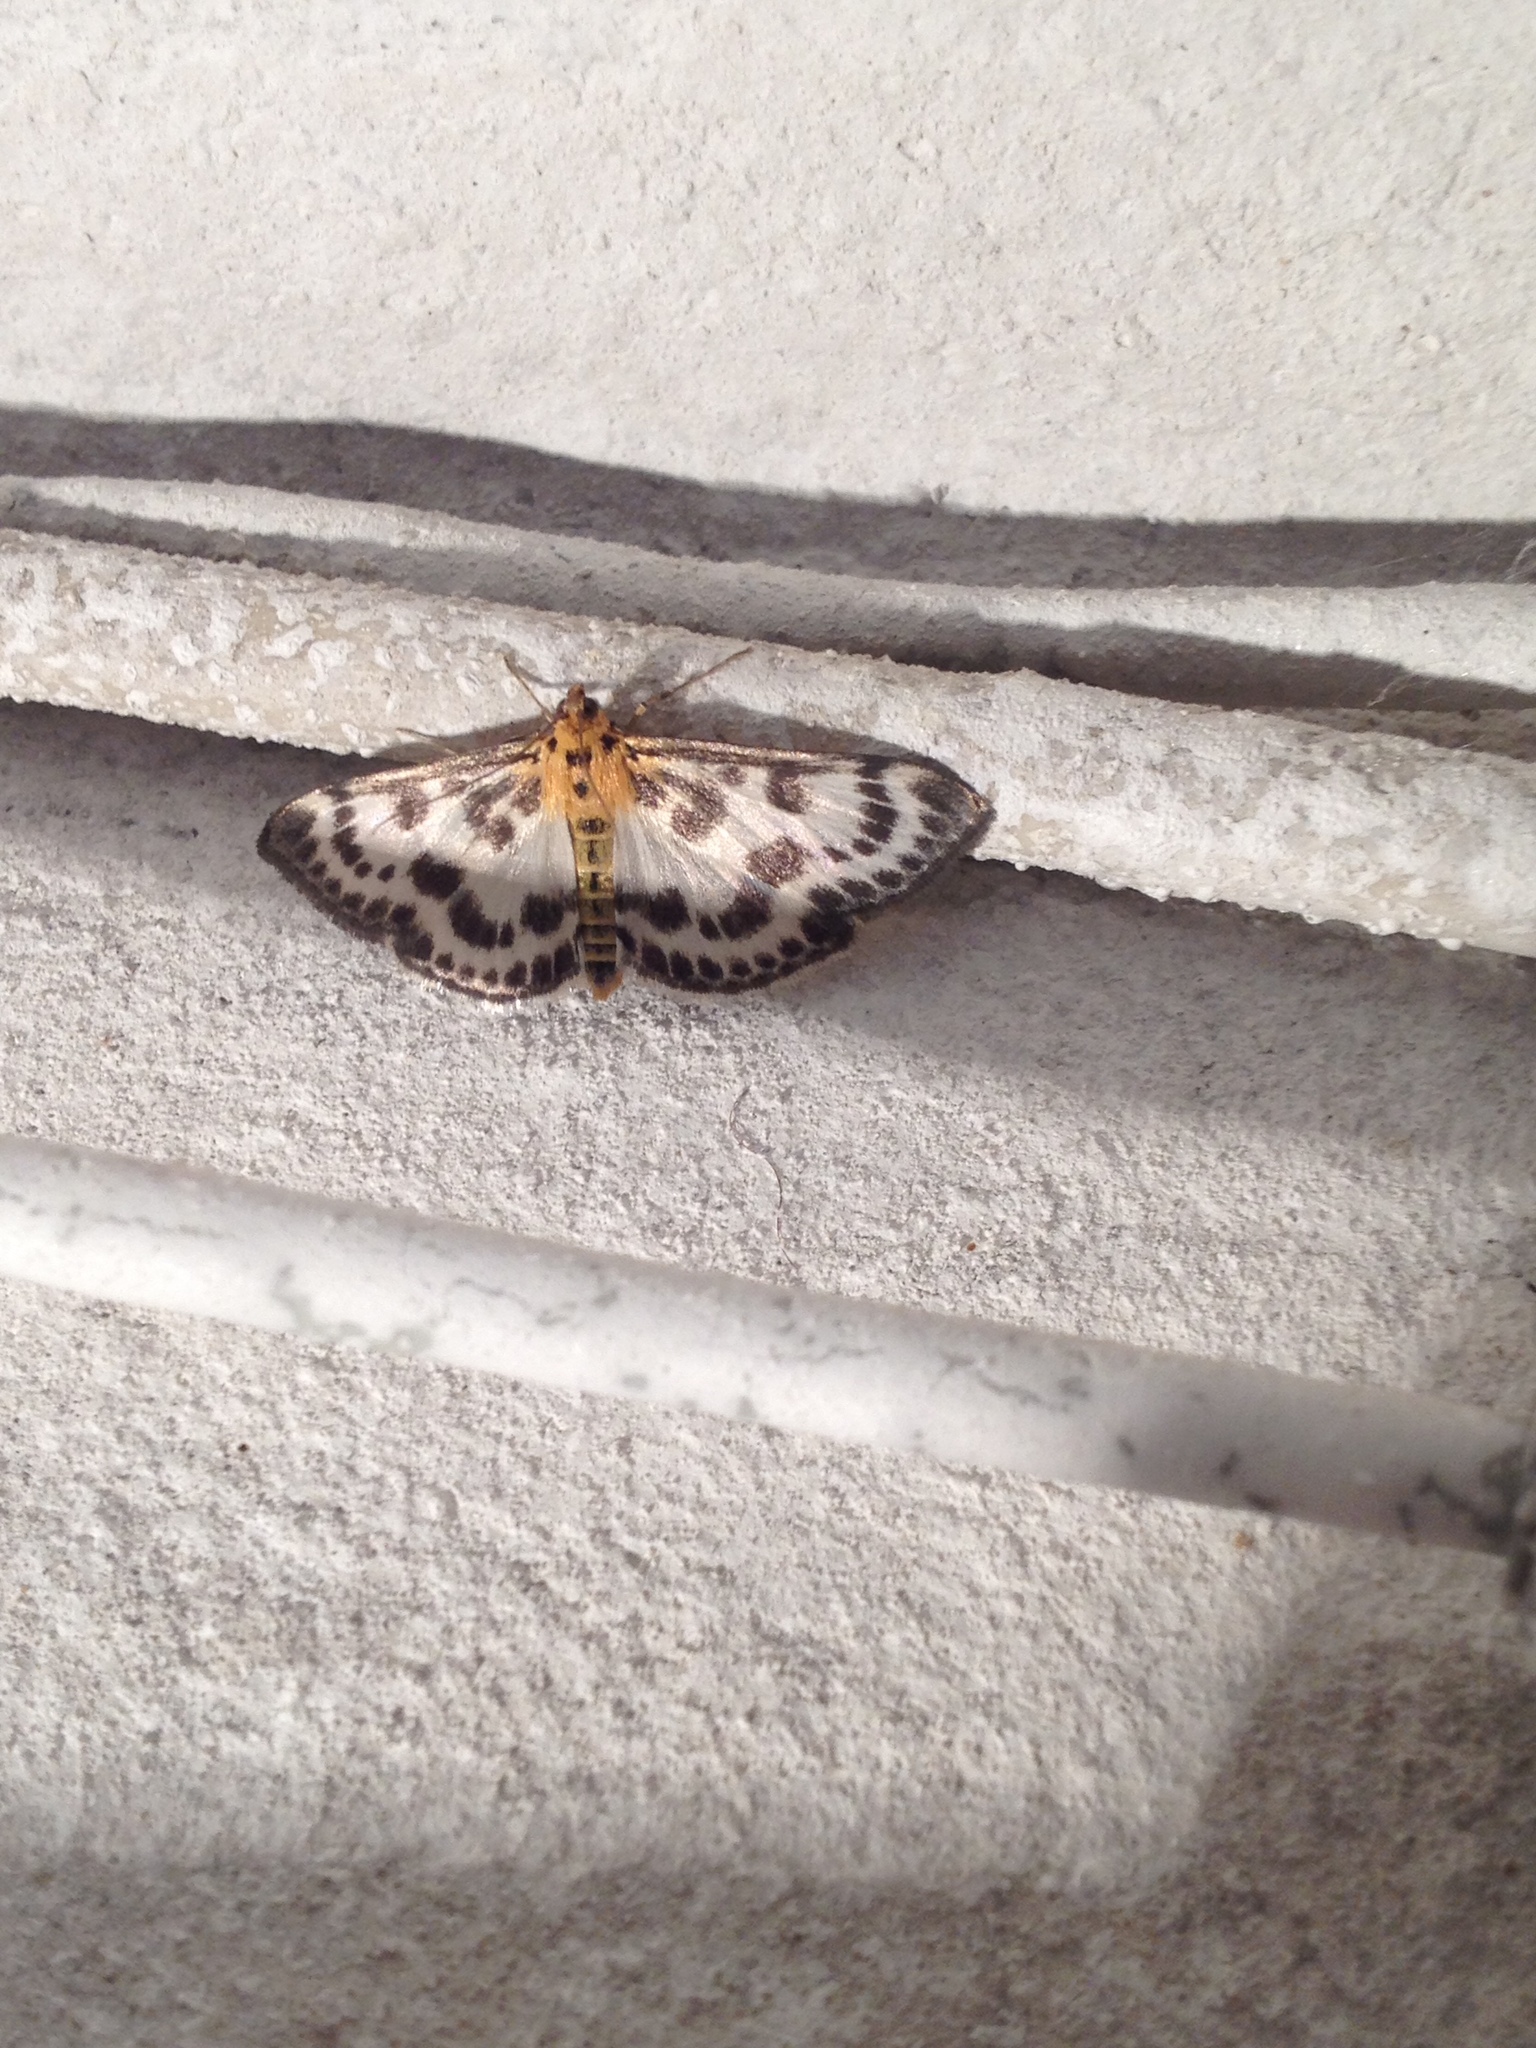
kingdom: Animalia
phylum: Arthropoda
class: Insecta
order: Lepidoptera
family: Crambidae
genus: Anania
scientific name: Anania hortulata
